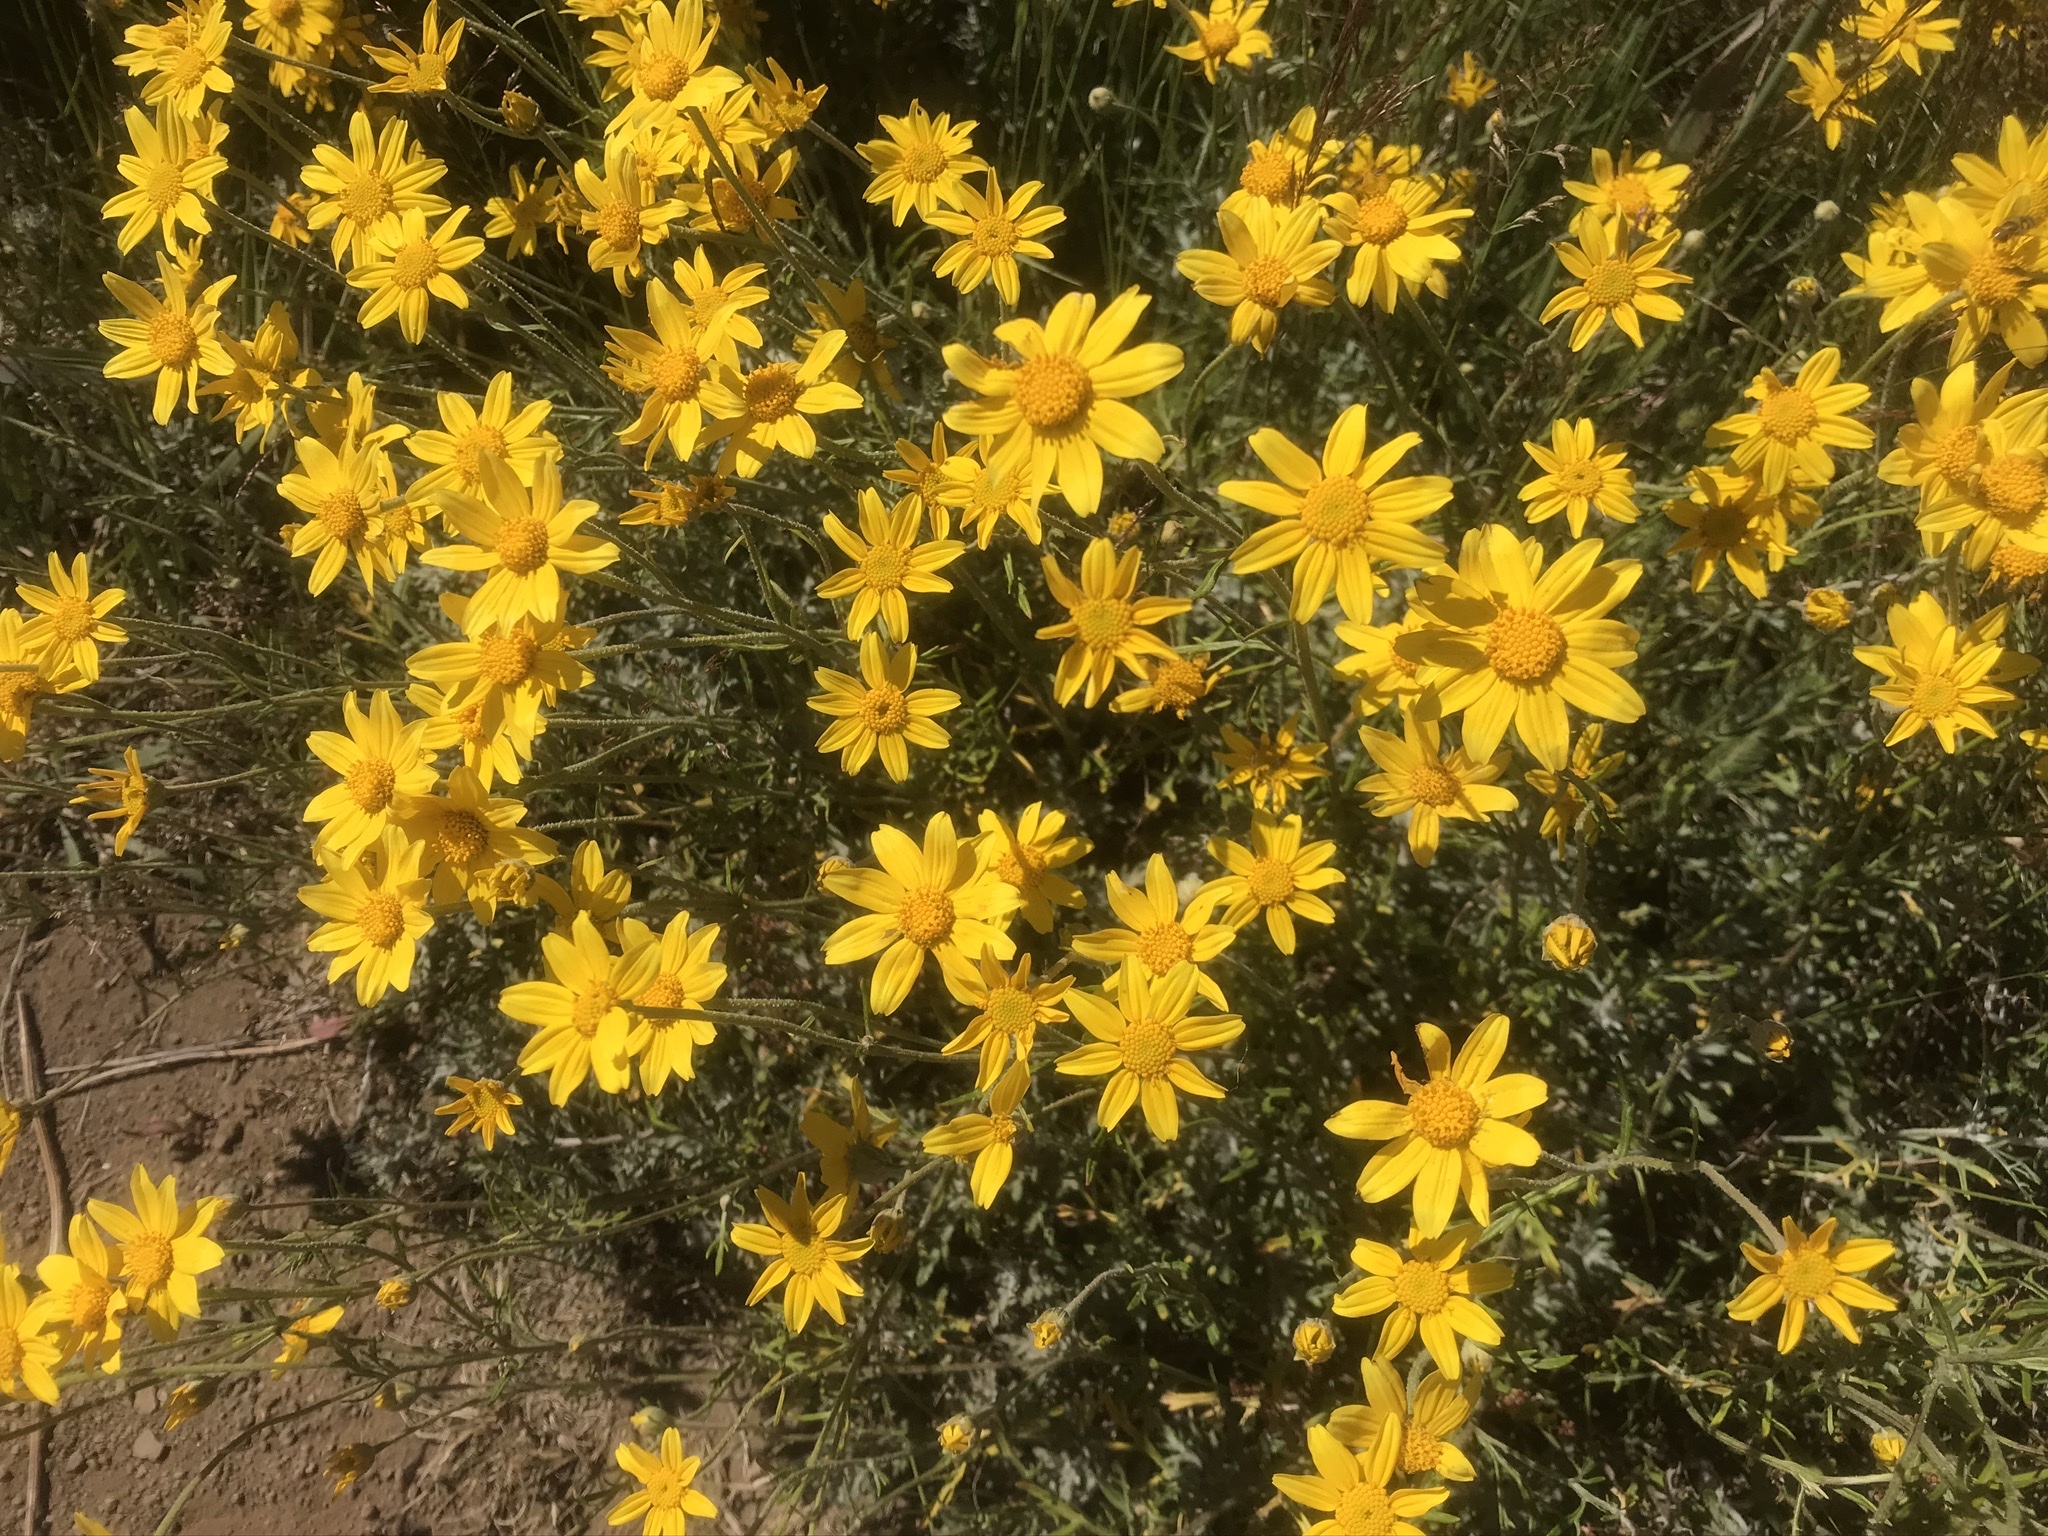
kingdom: Plantae
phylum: Tracheophyta
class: Magnoliopsida
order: Asterales
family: Asteraceae
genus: Eriophyllum
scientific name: Eriophyllum lanatum
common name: Common woolly-sunflower
